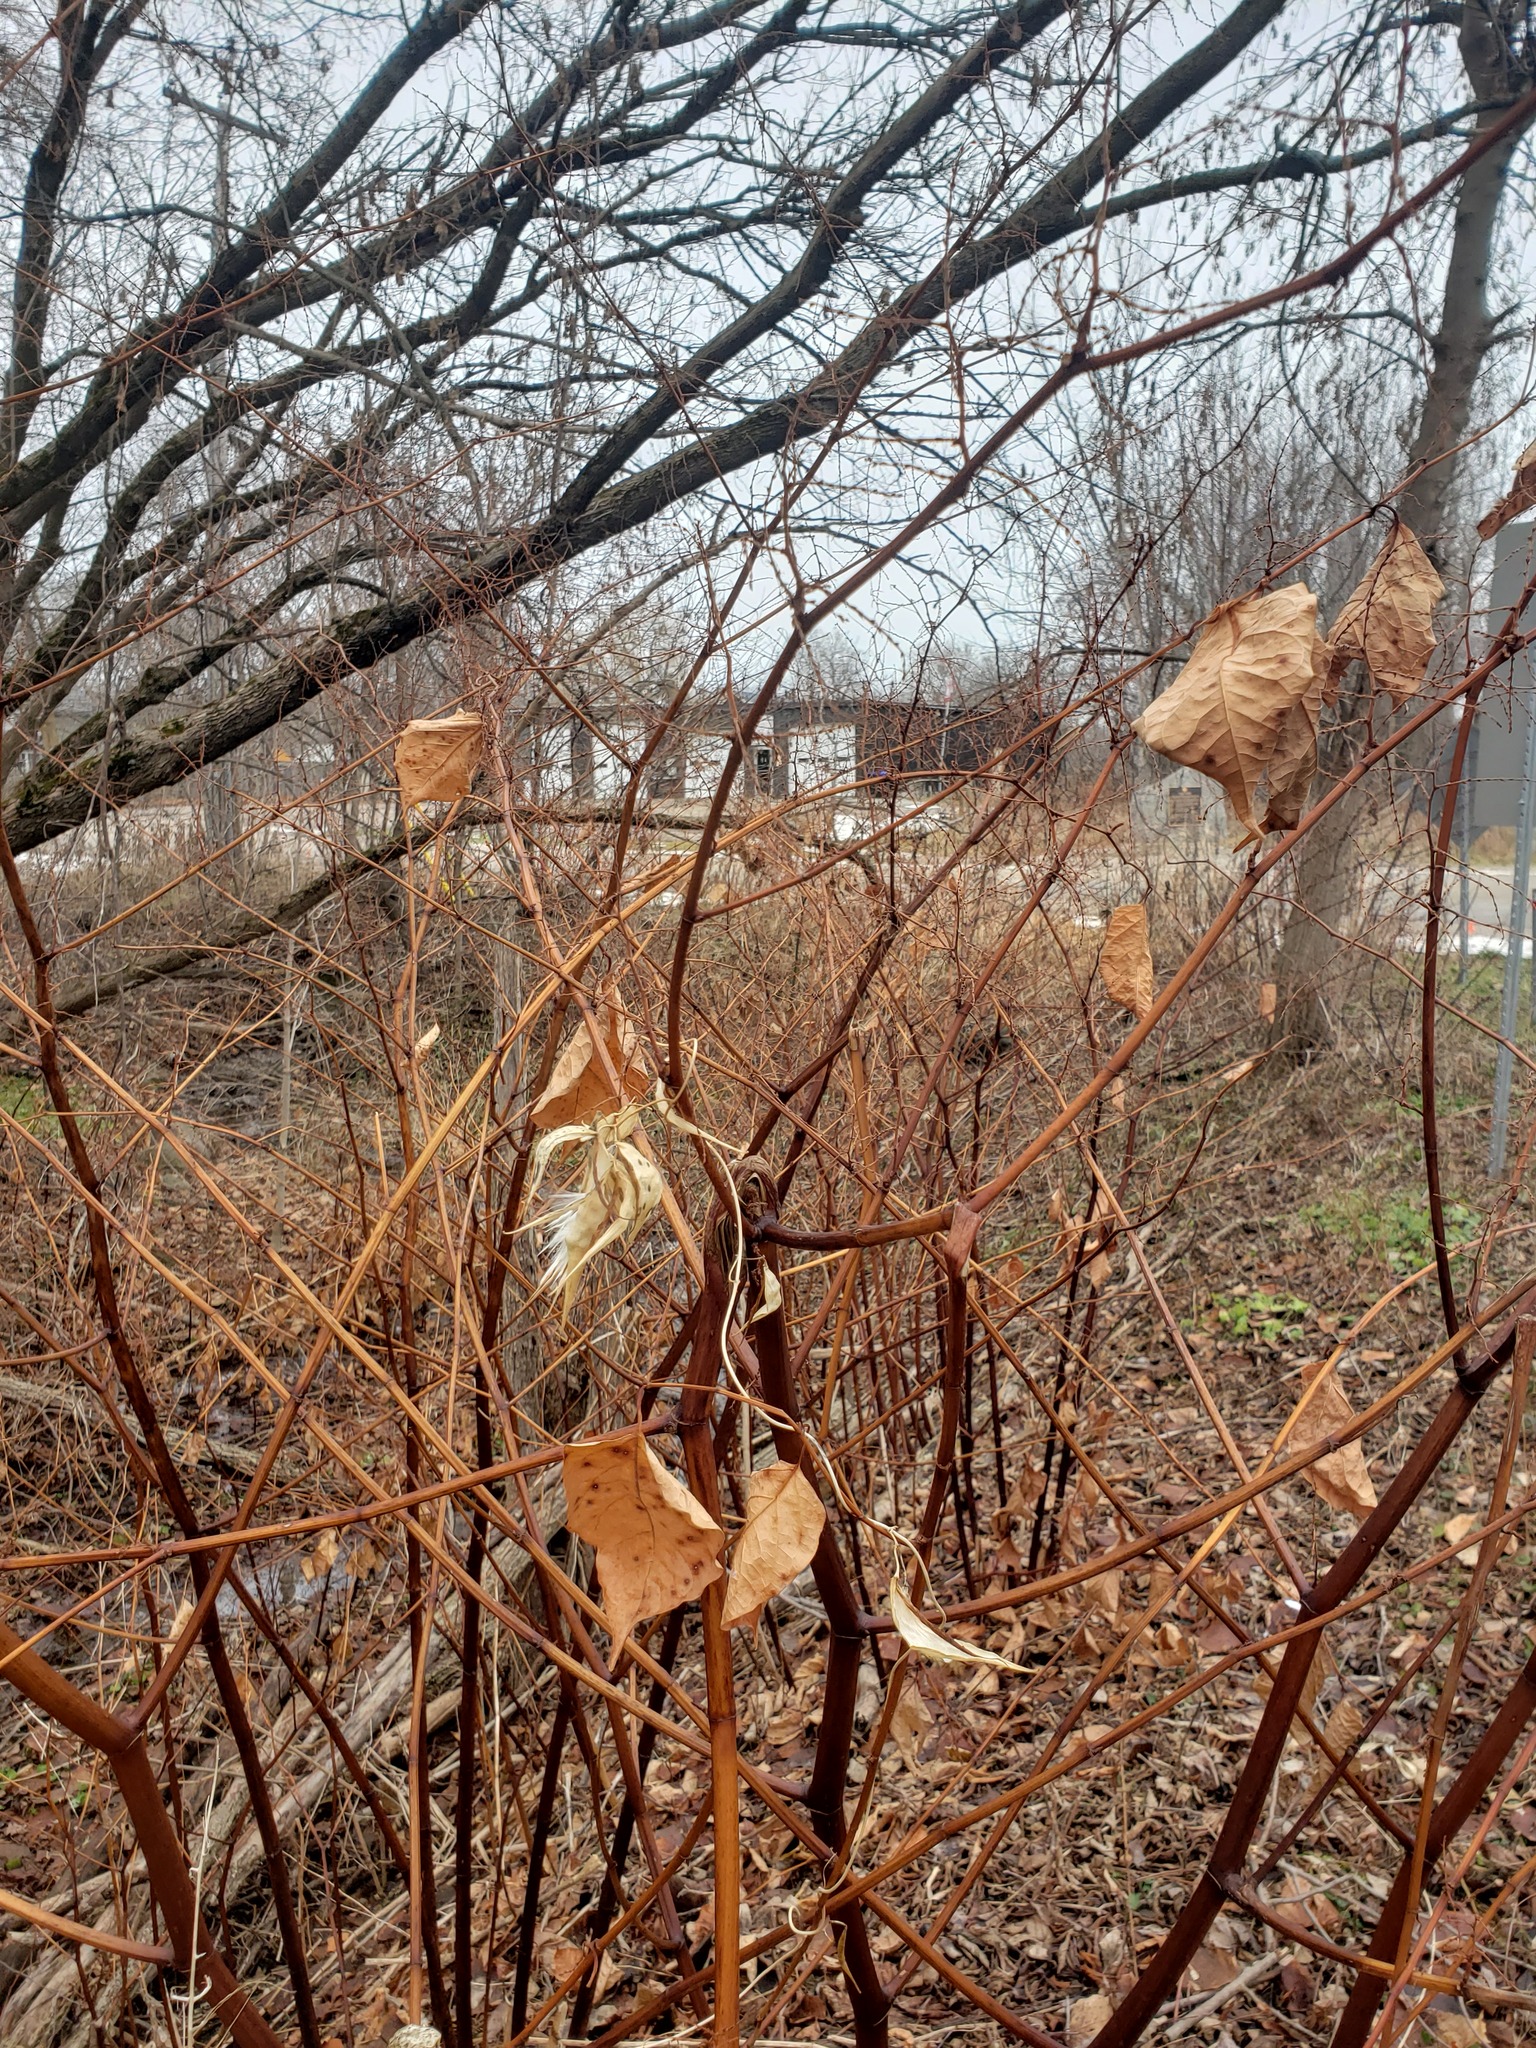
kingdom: Plantae
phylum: Tracheophyta
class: Magnoliopsida
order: Caryophyllales
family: Polygonaceae
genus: Reynoutria
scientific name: Reynoutria japonica
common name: Japanese knotweed
